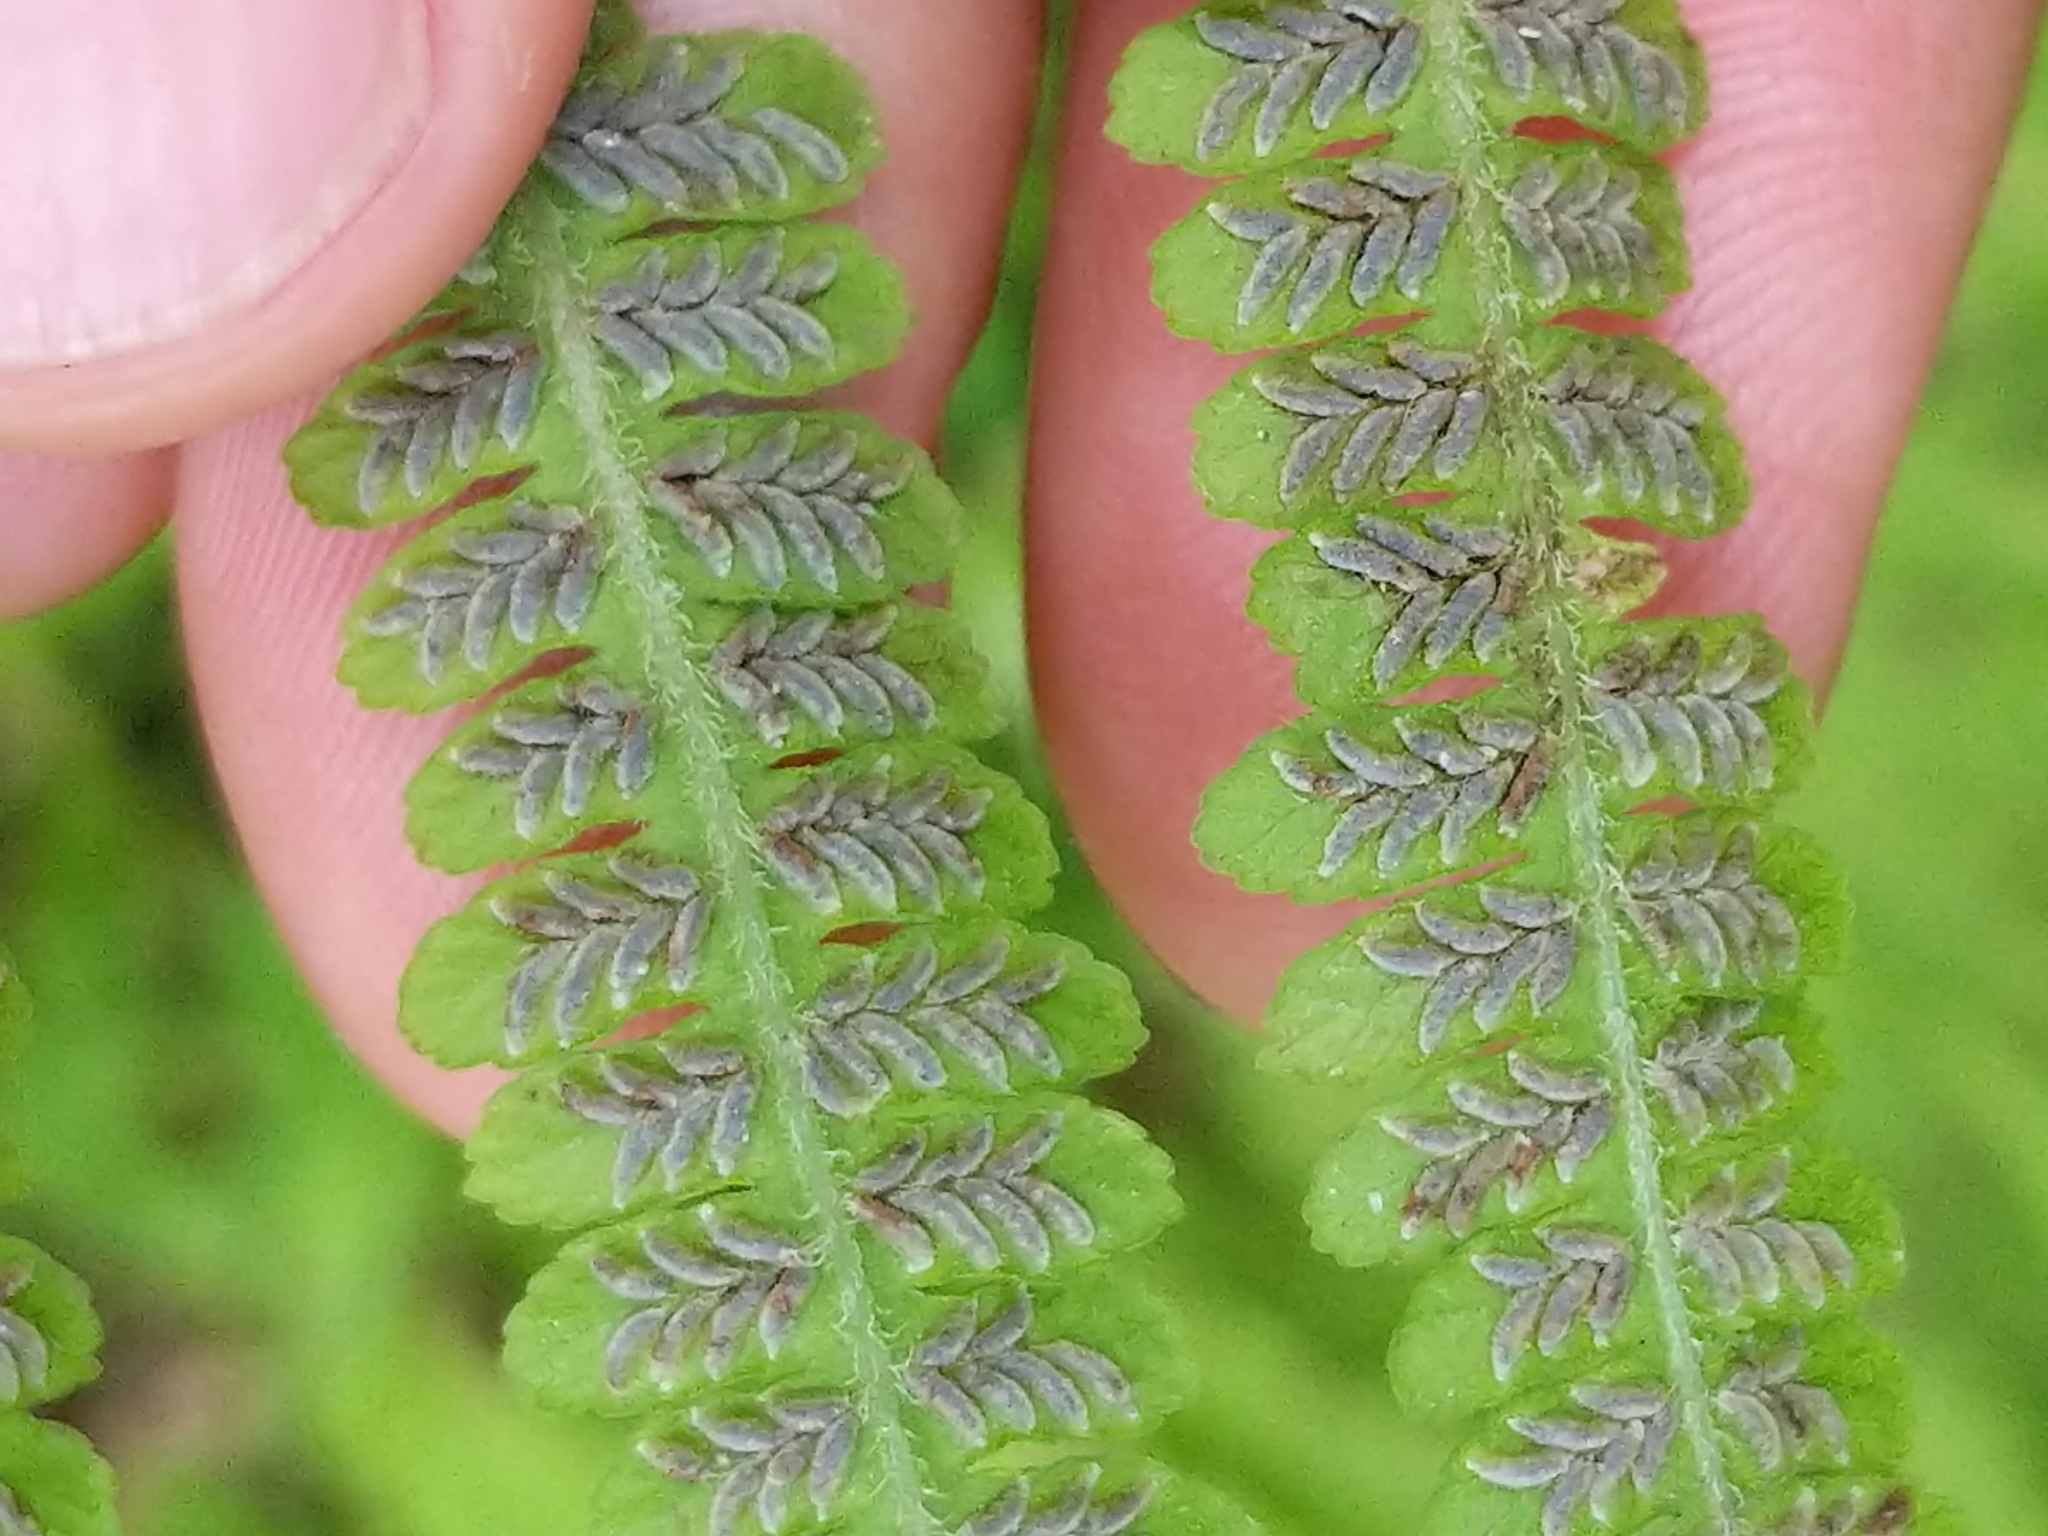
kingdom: Plantae
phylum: Tracheophyta
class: Polypodiopsida
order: Polypodiales
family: Athyriaceae
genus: Deparia
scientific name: Deparia acrostichoides
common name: Silver false spleenwort
